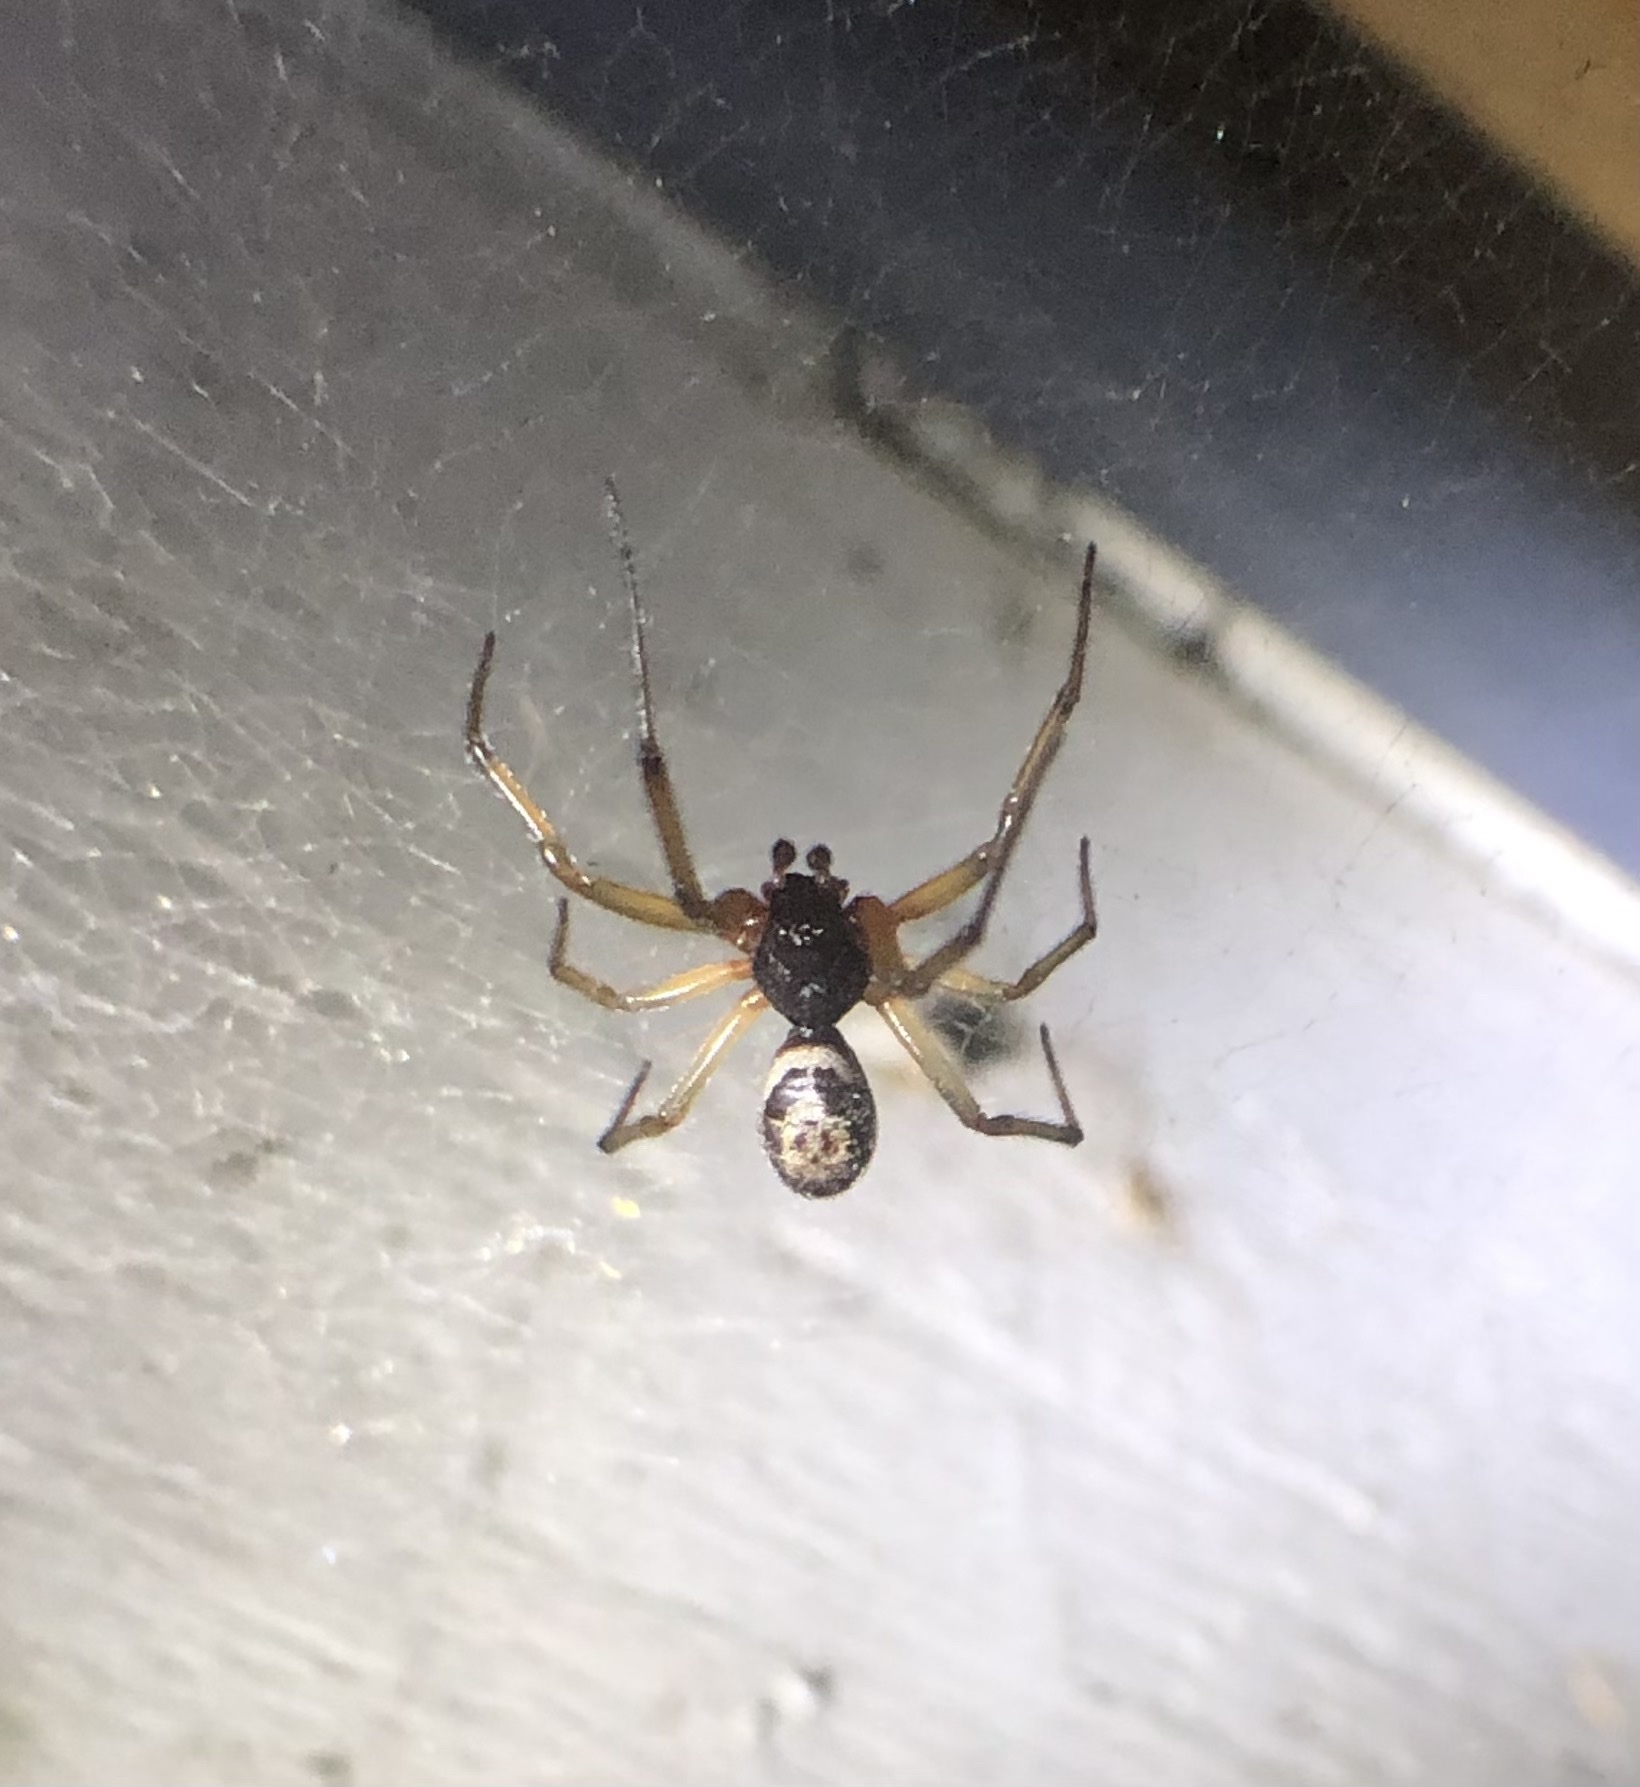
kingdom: Animalia
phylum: Arthropoda
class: Arachnida
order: Araneae
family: Theridiidae
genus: Steatoda
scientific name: Steatoda nobilis
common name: Cobweb weaver
